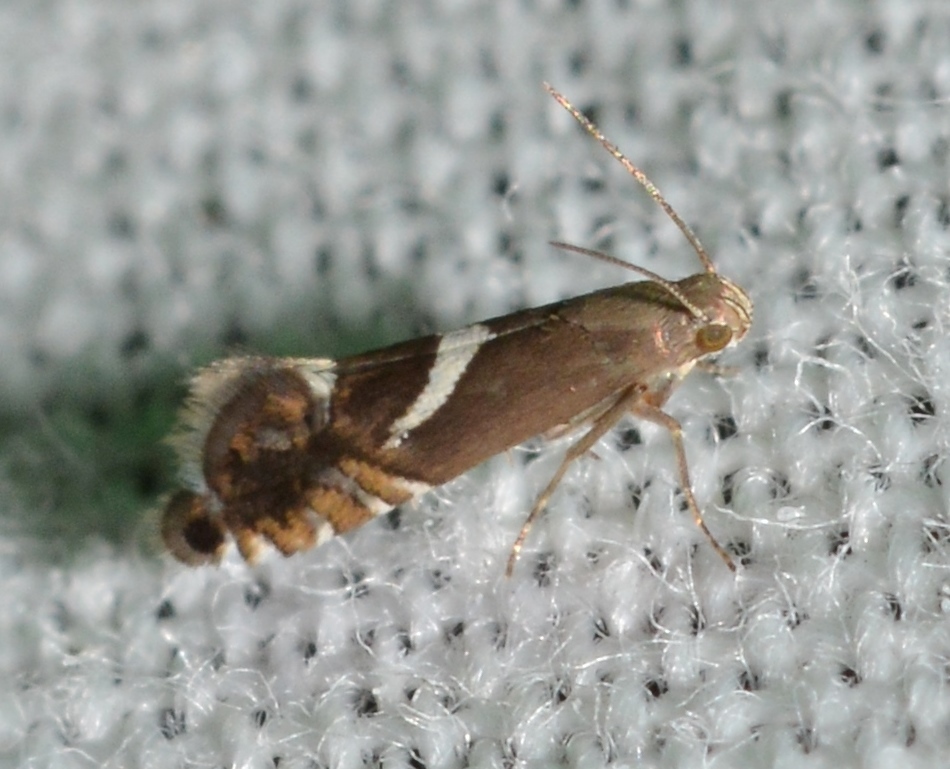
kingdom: Animalia
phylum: Arthropoda
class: Insecta
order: Lepidoptera
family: Glyphipterigidae
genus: Glyphipterix
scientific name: Glyphipterix Diploschizia impigritella
